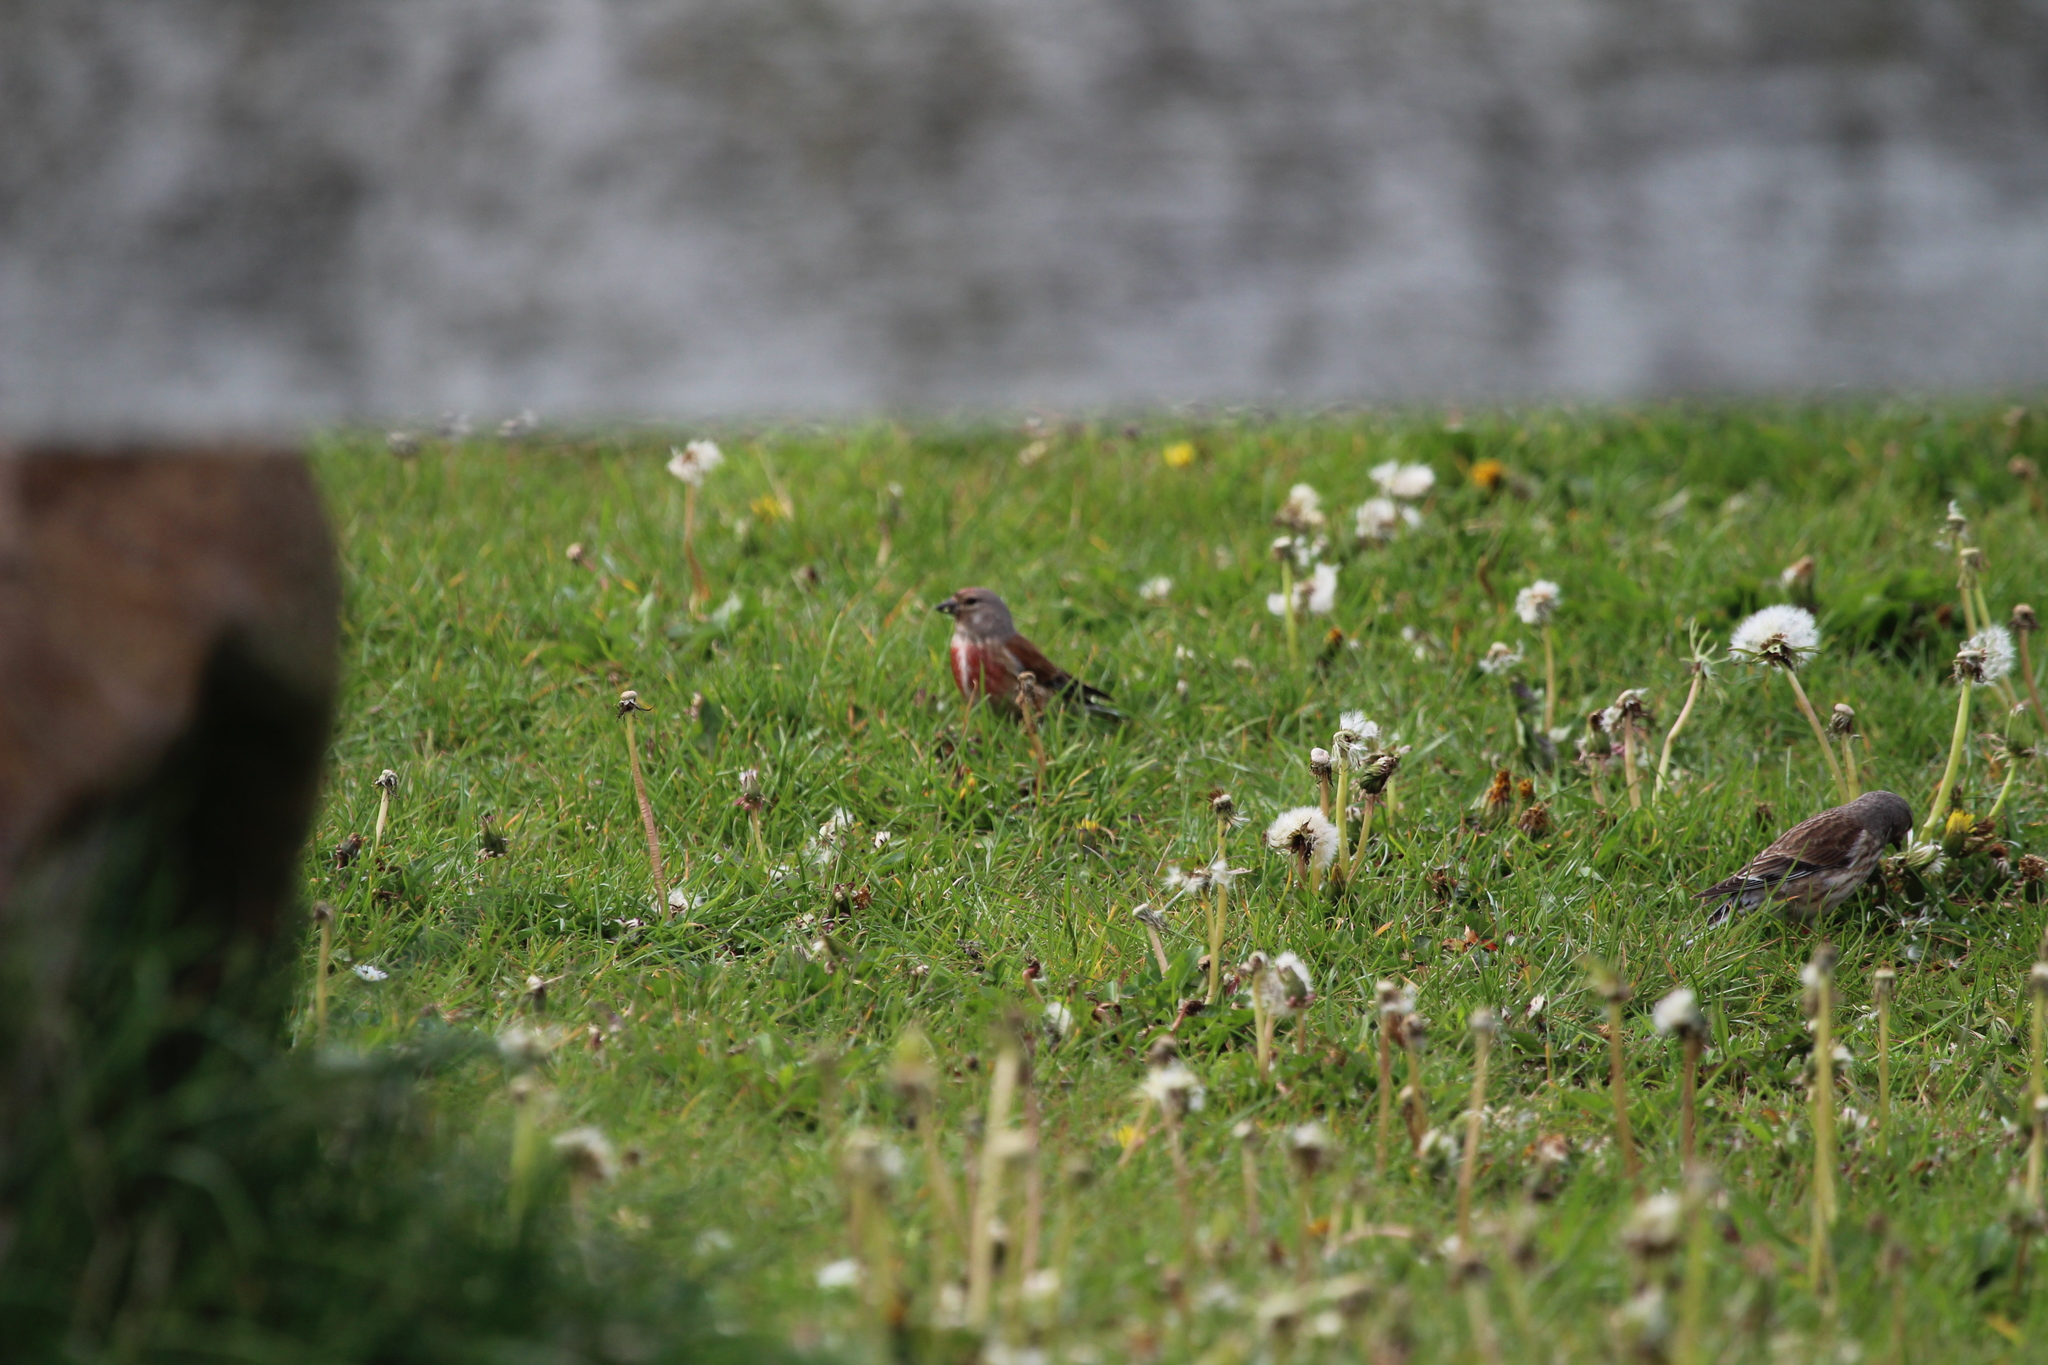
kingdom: Animalia
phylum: Chordata
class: Aves
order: Passeriformes
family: Fringillidae
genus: Linaria
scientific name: Linaria cannabina
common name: Common linnet
